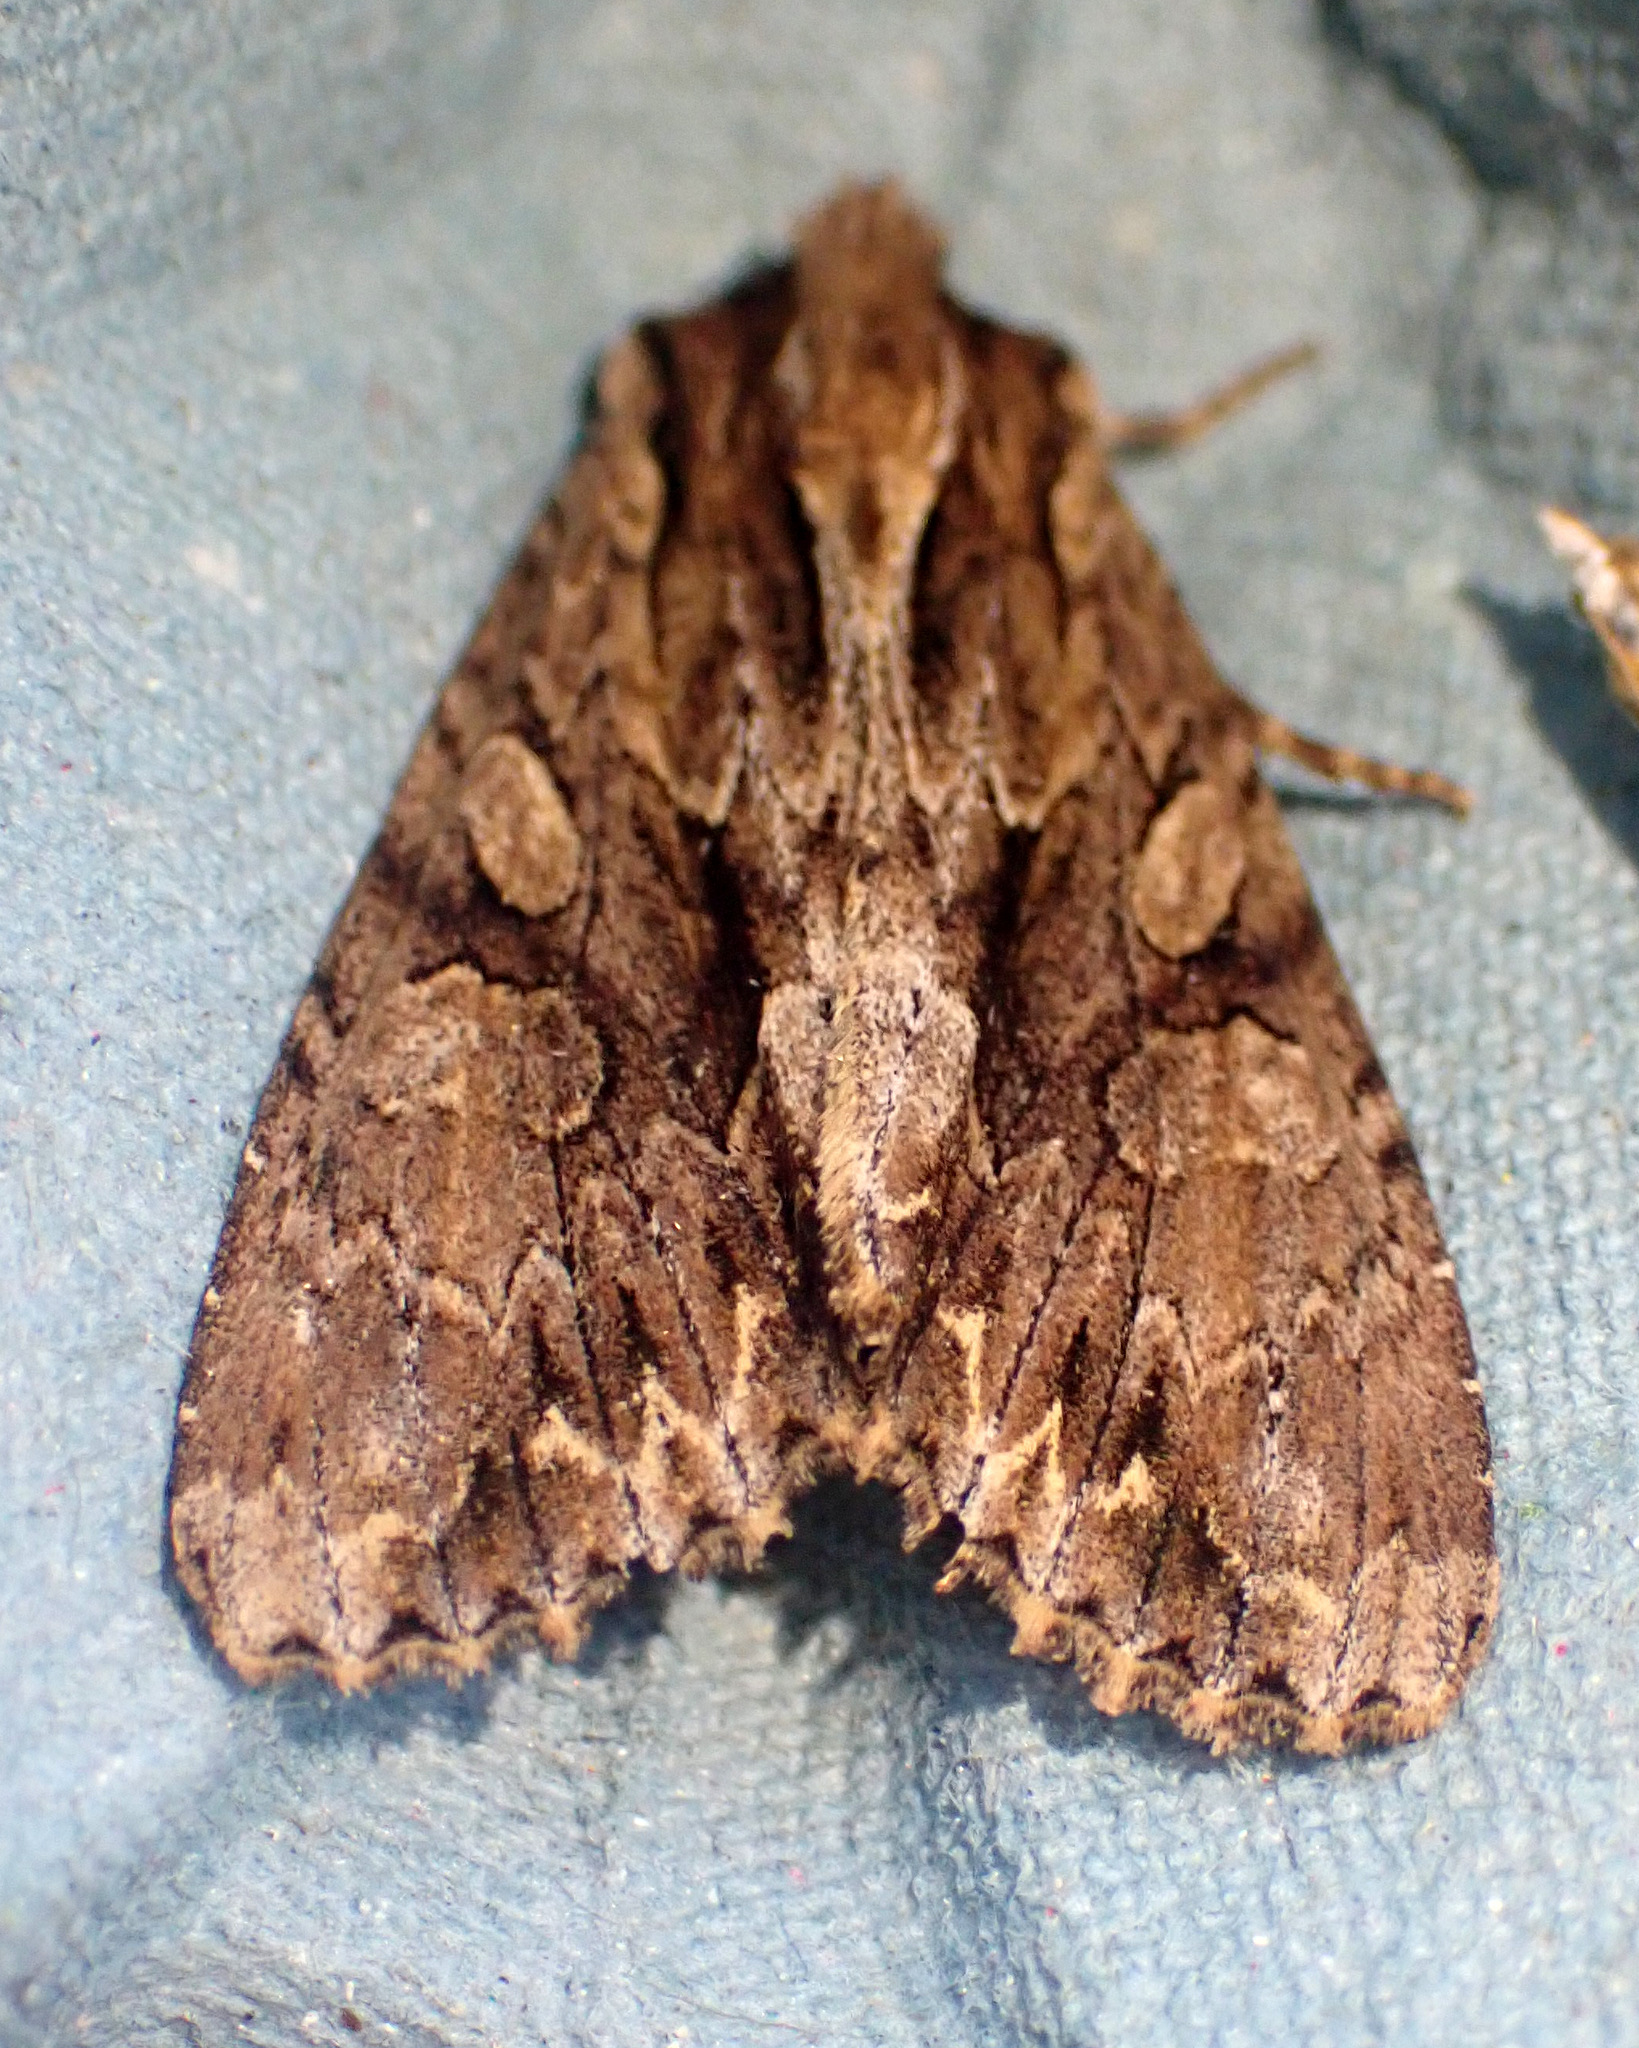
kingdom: Animalia
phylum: Arthropoda
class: Insecta
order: Lepidoptera
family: Noctuidae
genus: Apamea
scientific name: Apamea monoglypha
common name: Dark arches
